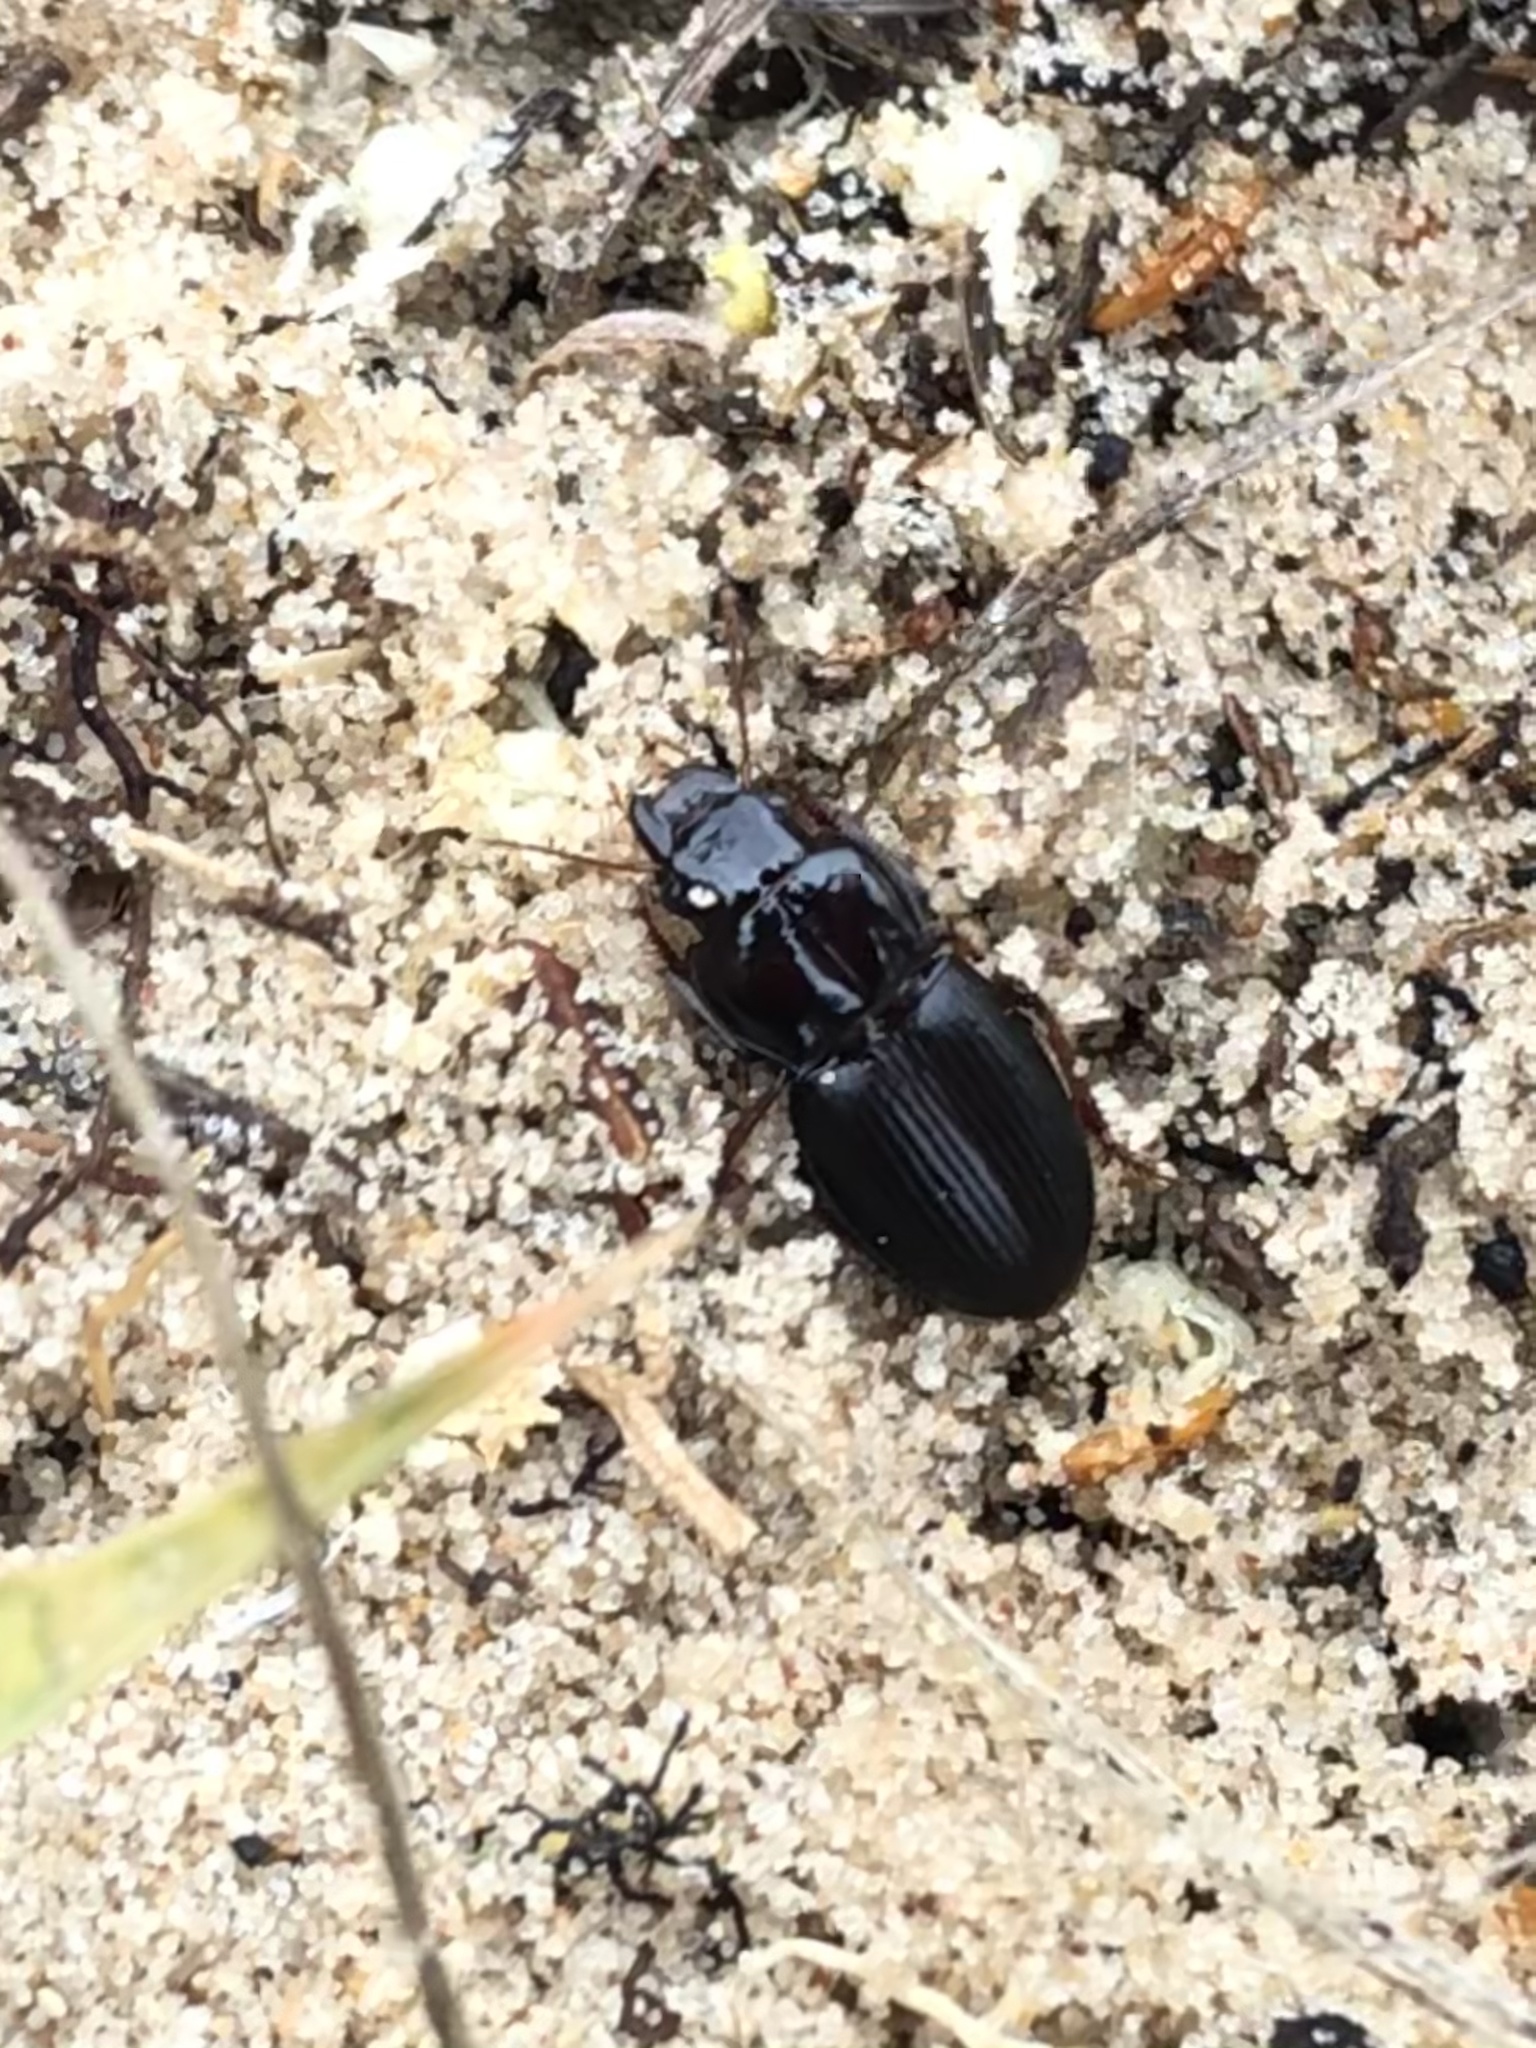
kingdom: Animalia
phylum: Arthropoda
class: Insecta
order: Coleoptera
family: Carabidae
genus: Cratacanthus
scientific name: Cratacanthus dubius
